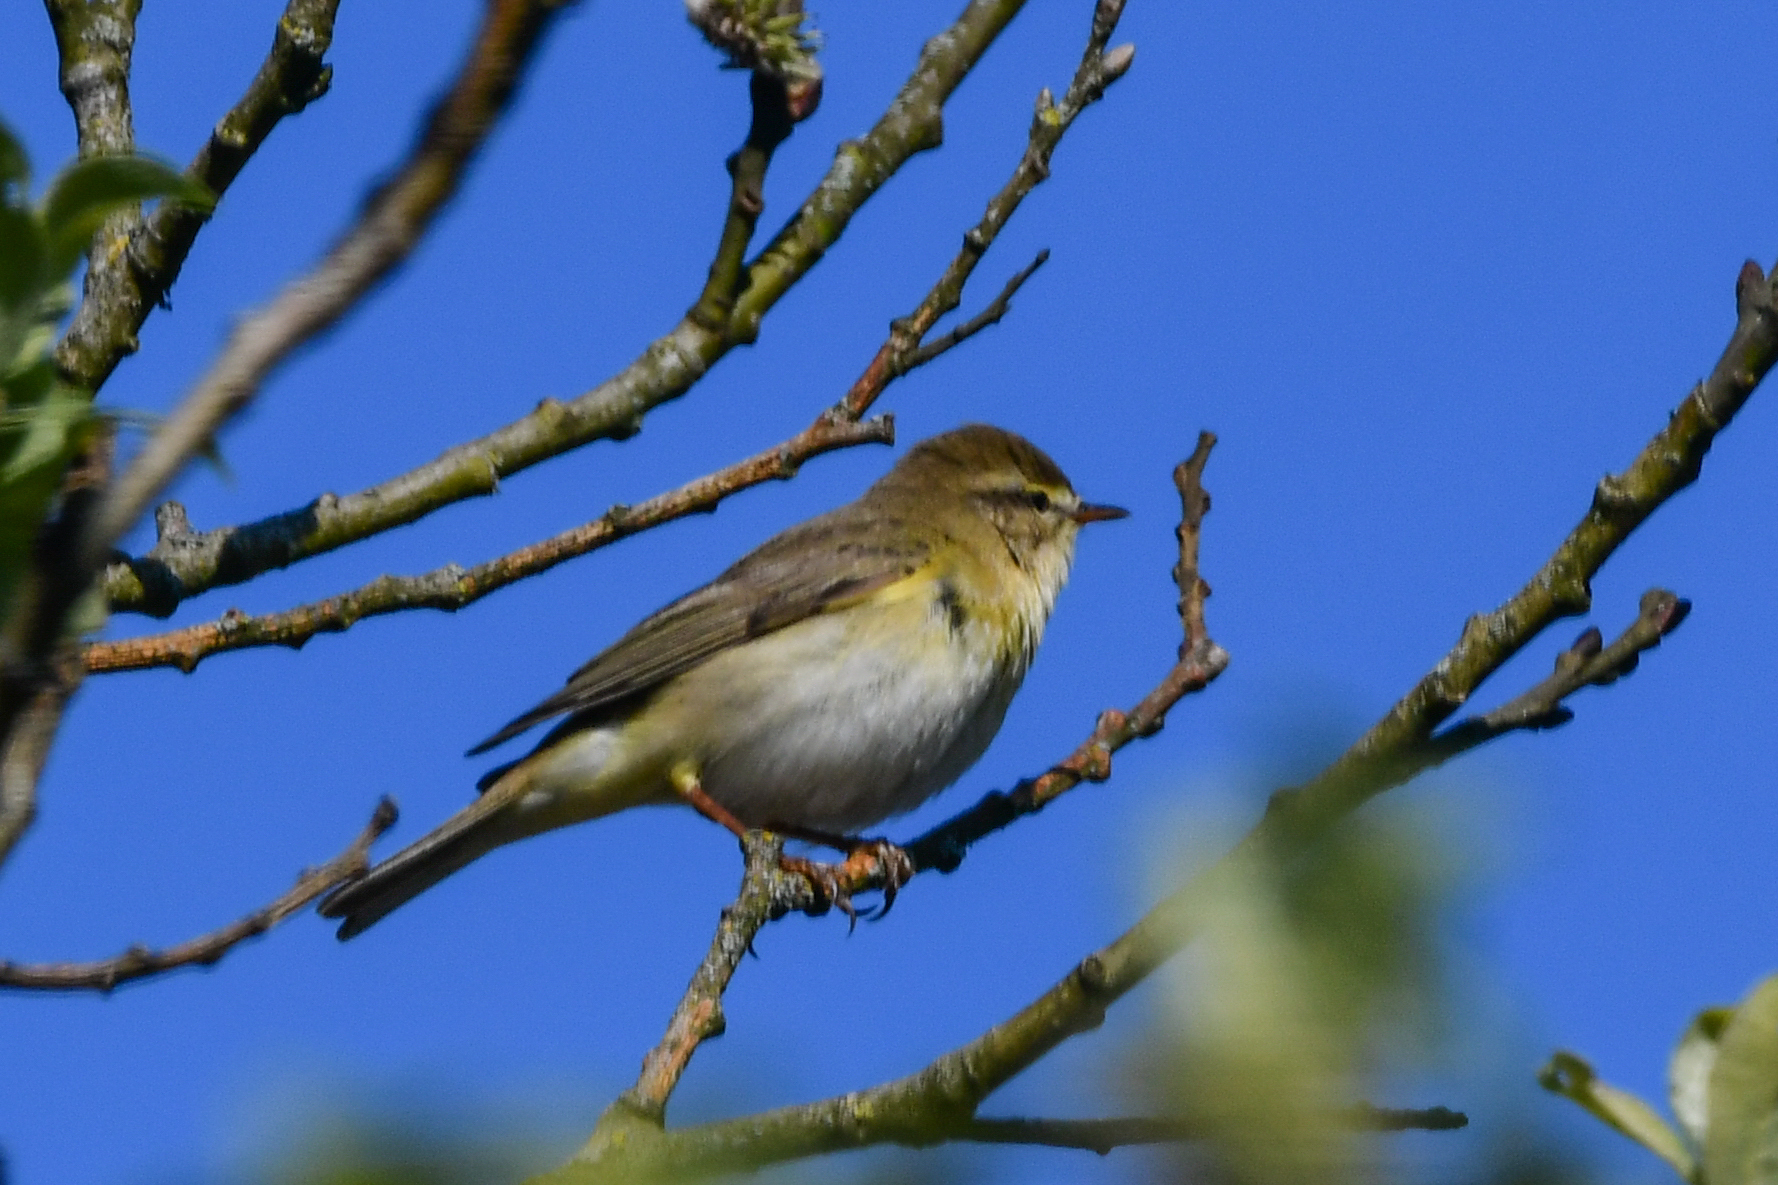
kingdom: Animalia
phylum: Chordata
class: Aves
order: Passeriformes
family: Phylloscopidae
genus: Phylloscopus
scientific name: Phylloscopus trochilus
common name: Willow warbler
